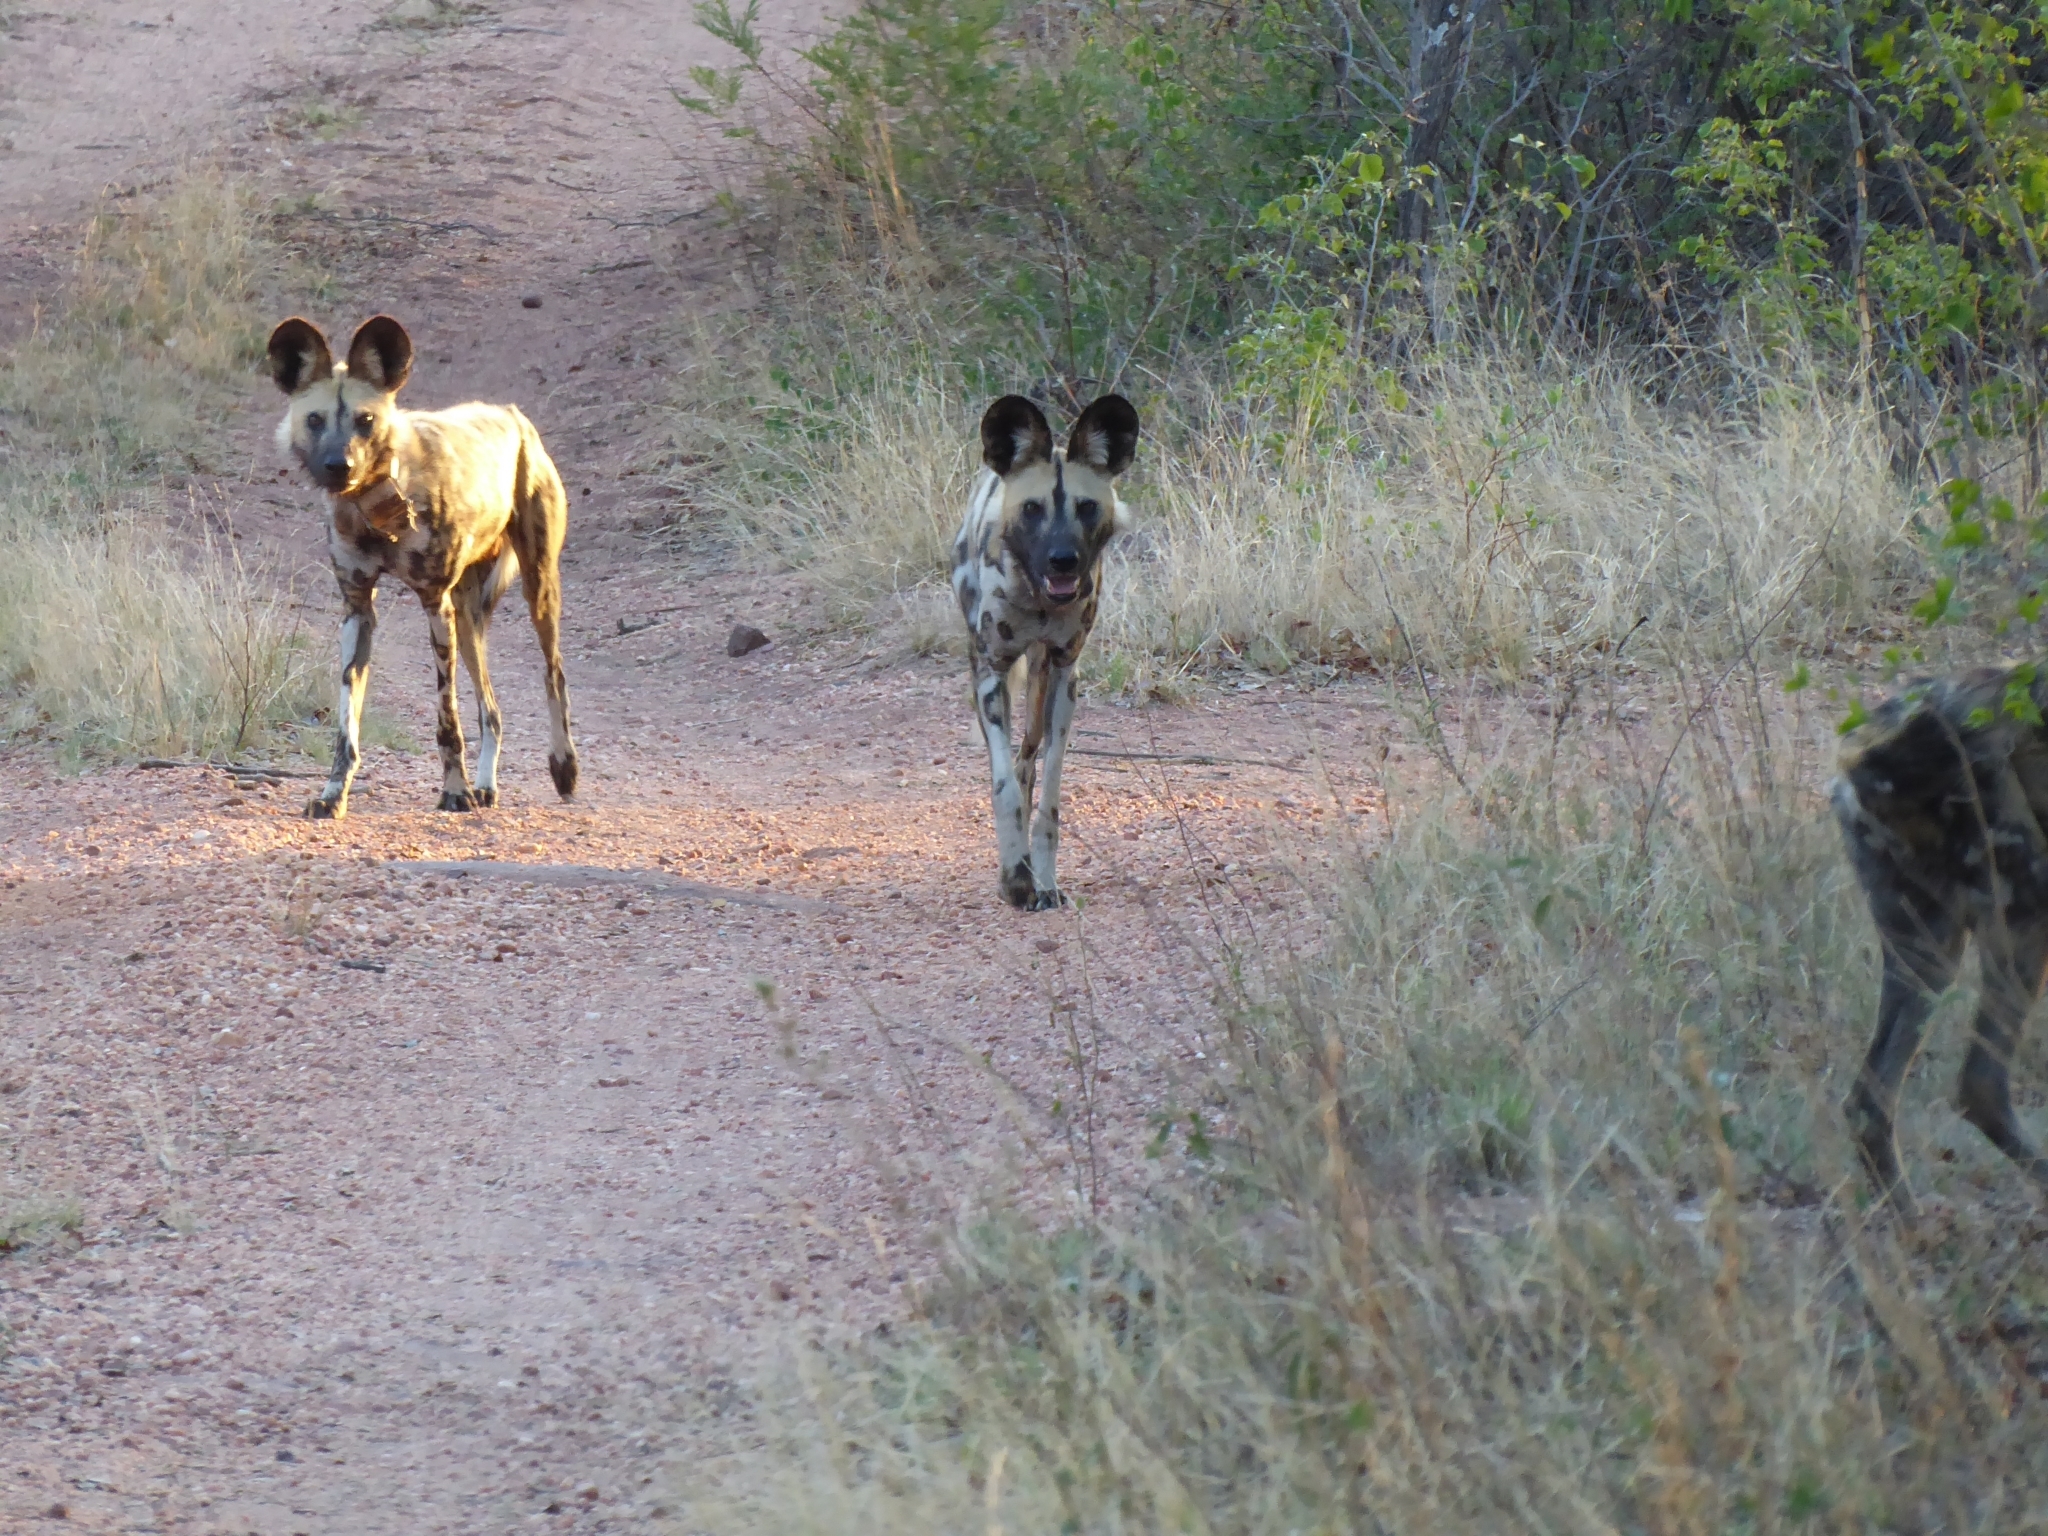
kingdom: Animalia
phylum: Chordata
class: Mammalia
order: Carnivora
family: Canidae
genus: Lycaon
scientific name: Lycaon pictus
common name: African wild dog
